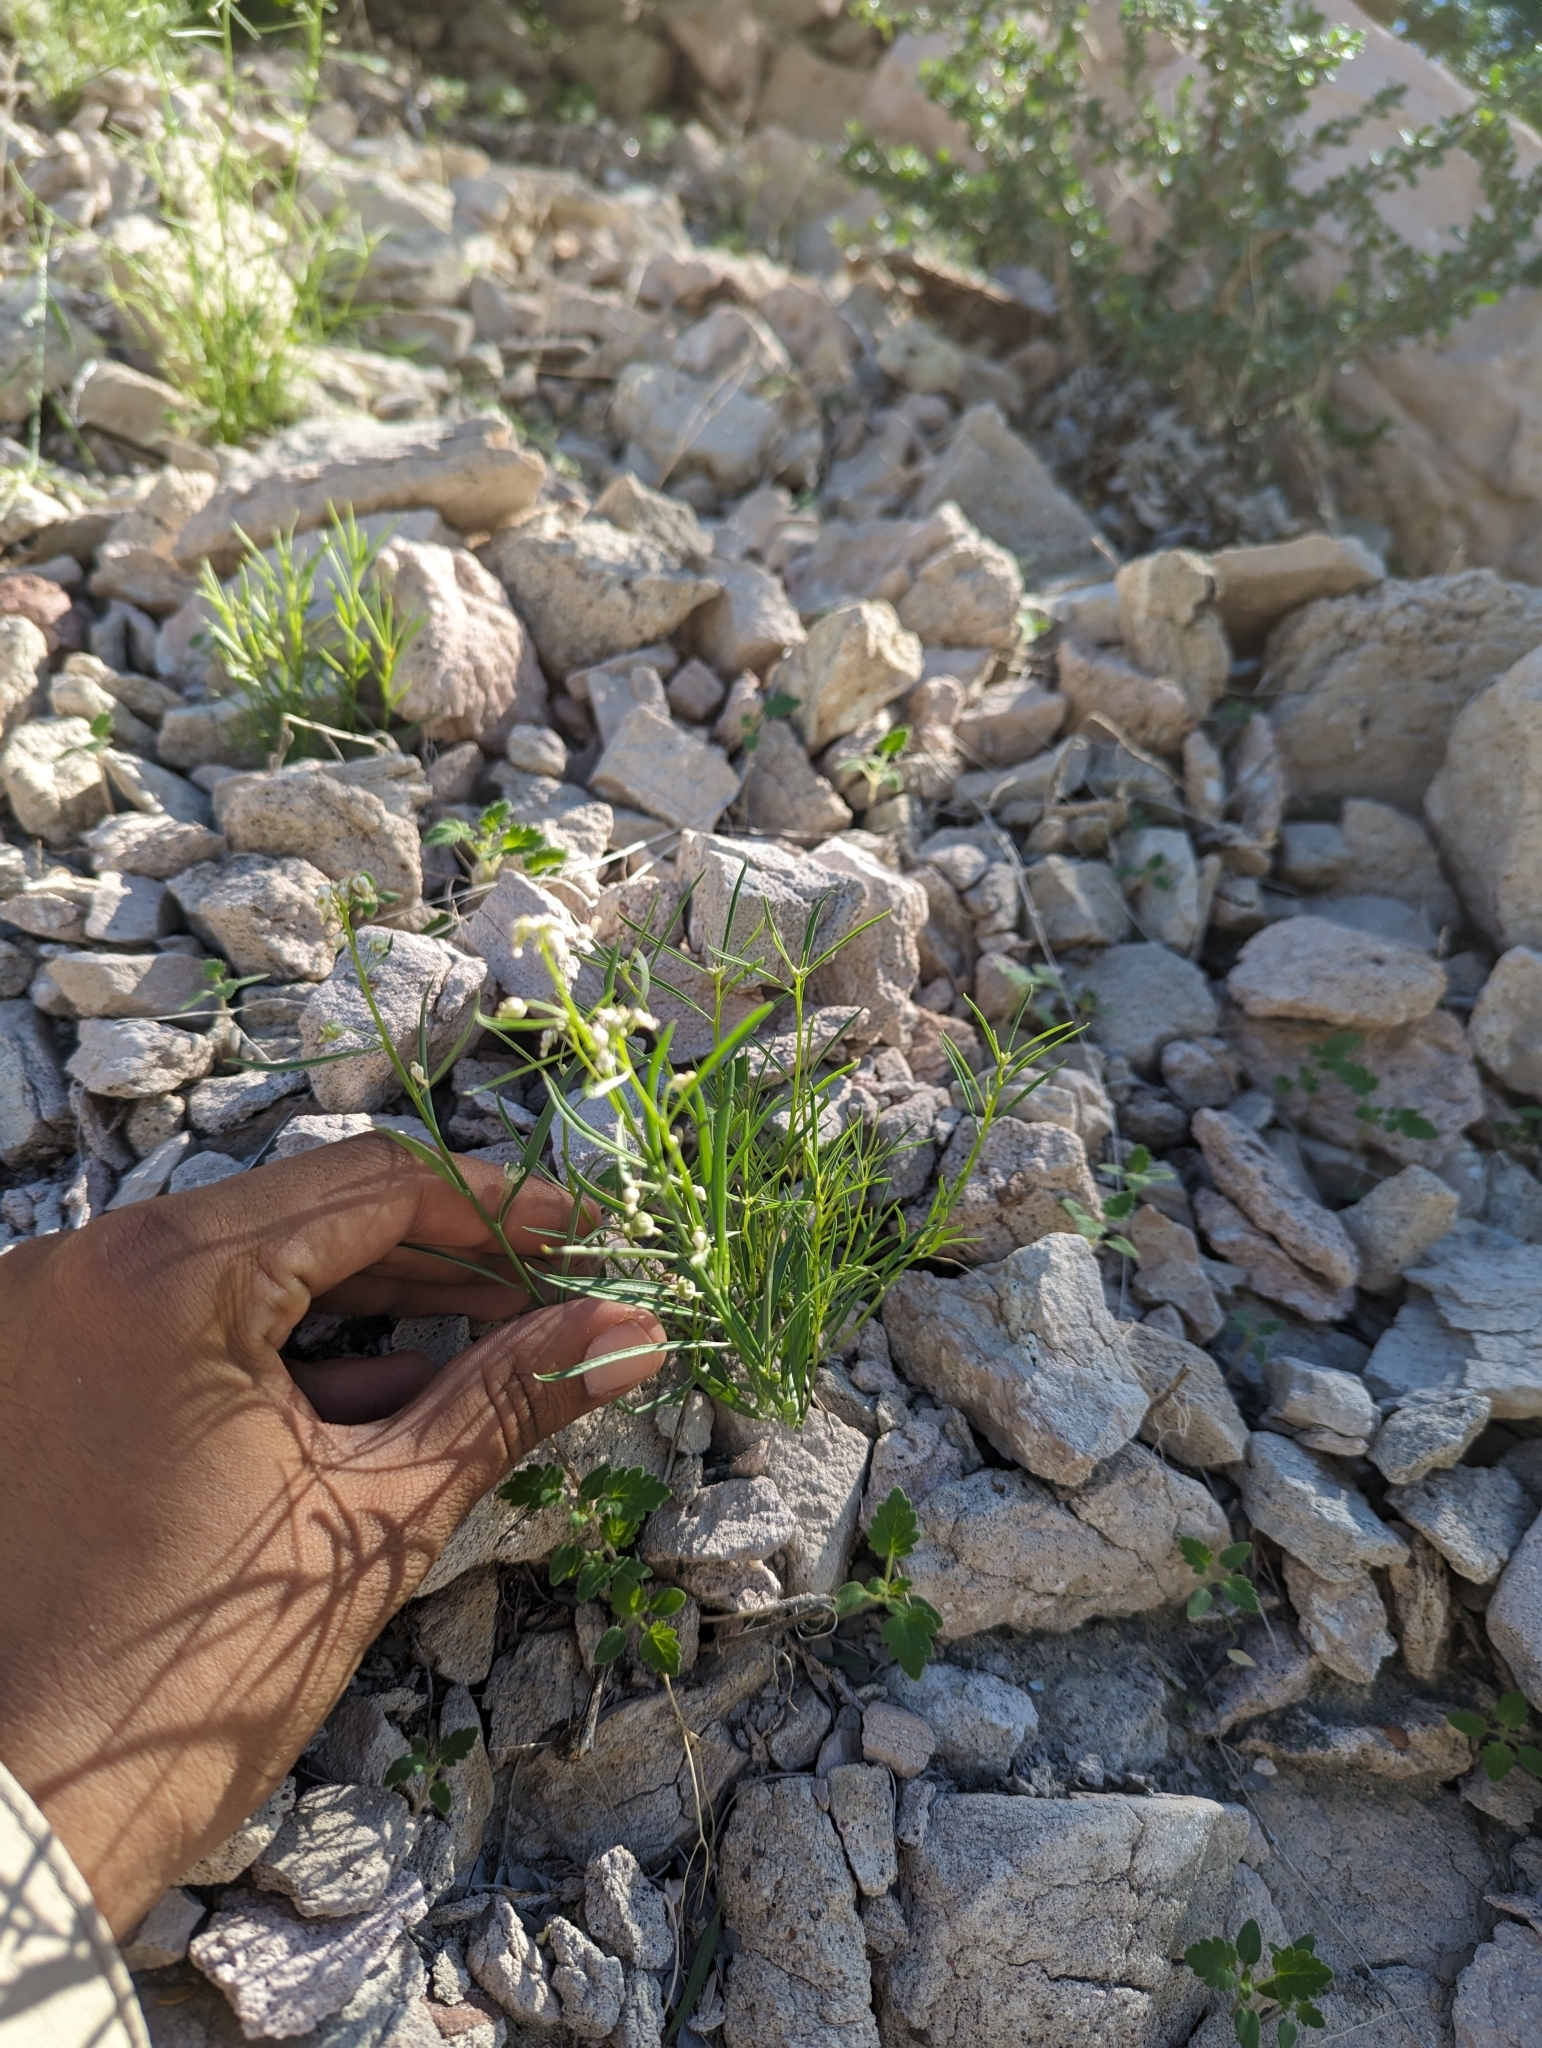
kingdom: Plantae
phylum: Tracheophyta
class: Magnoliopsida
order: Malpighiales
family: Violaceae
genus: Hybanthus
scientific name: Hybanthus fruticulosus
